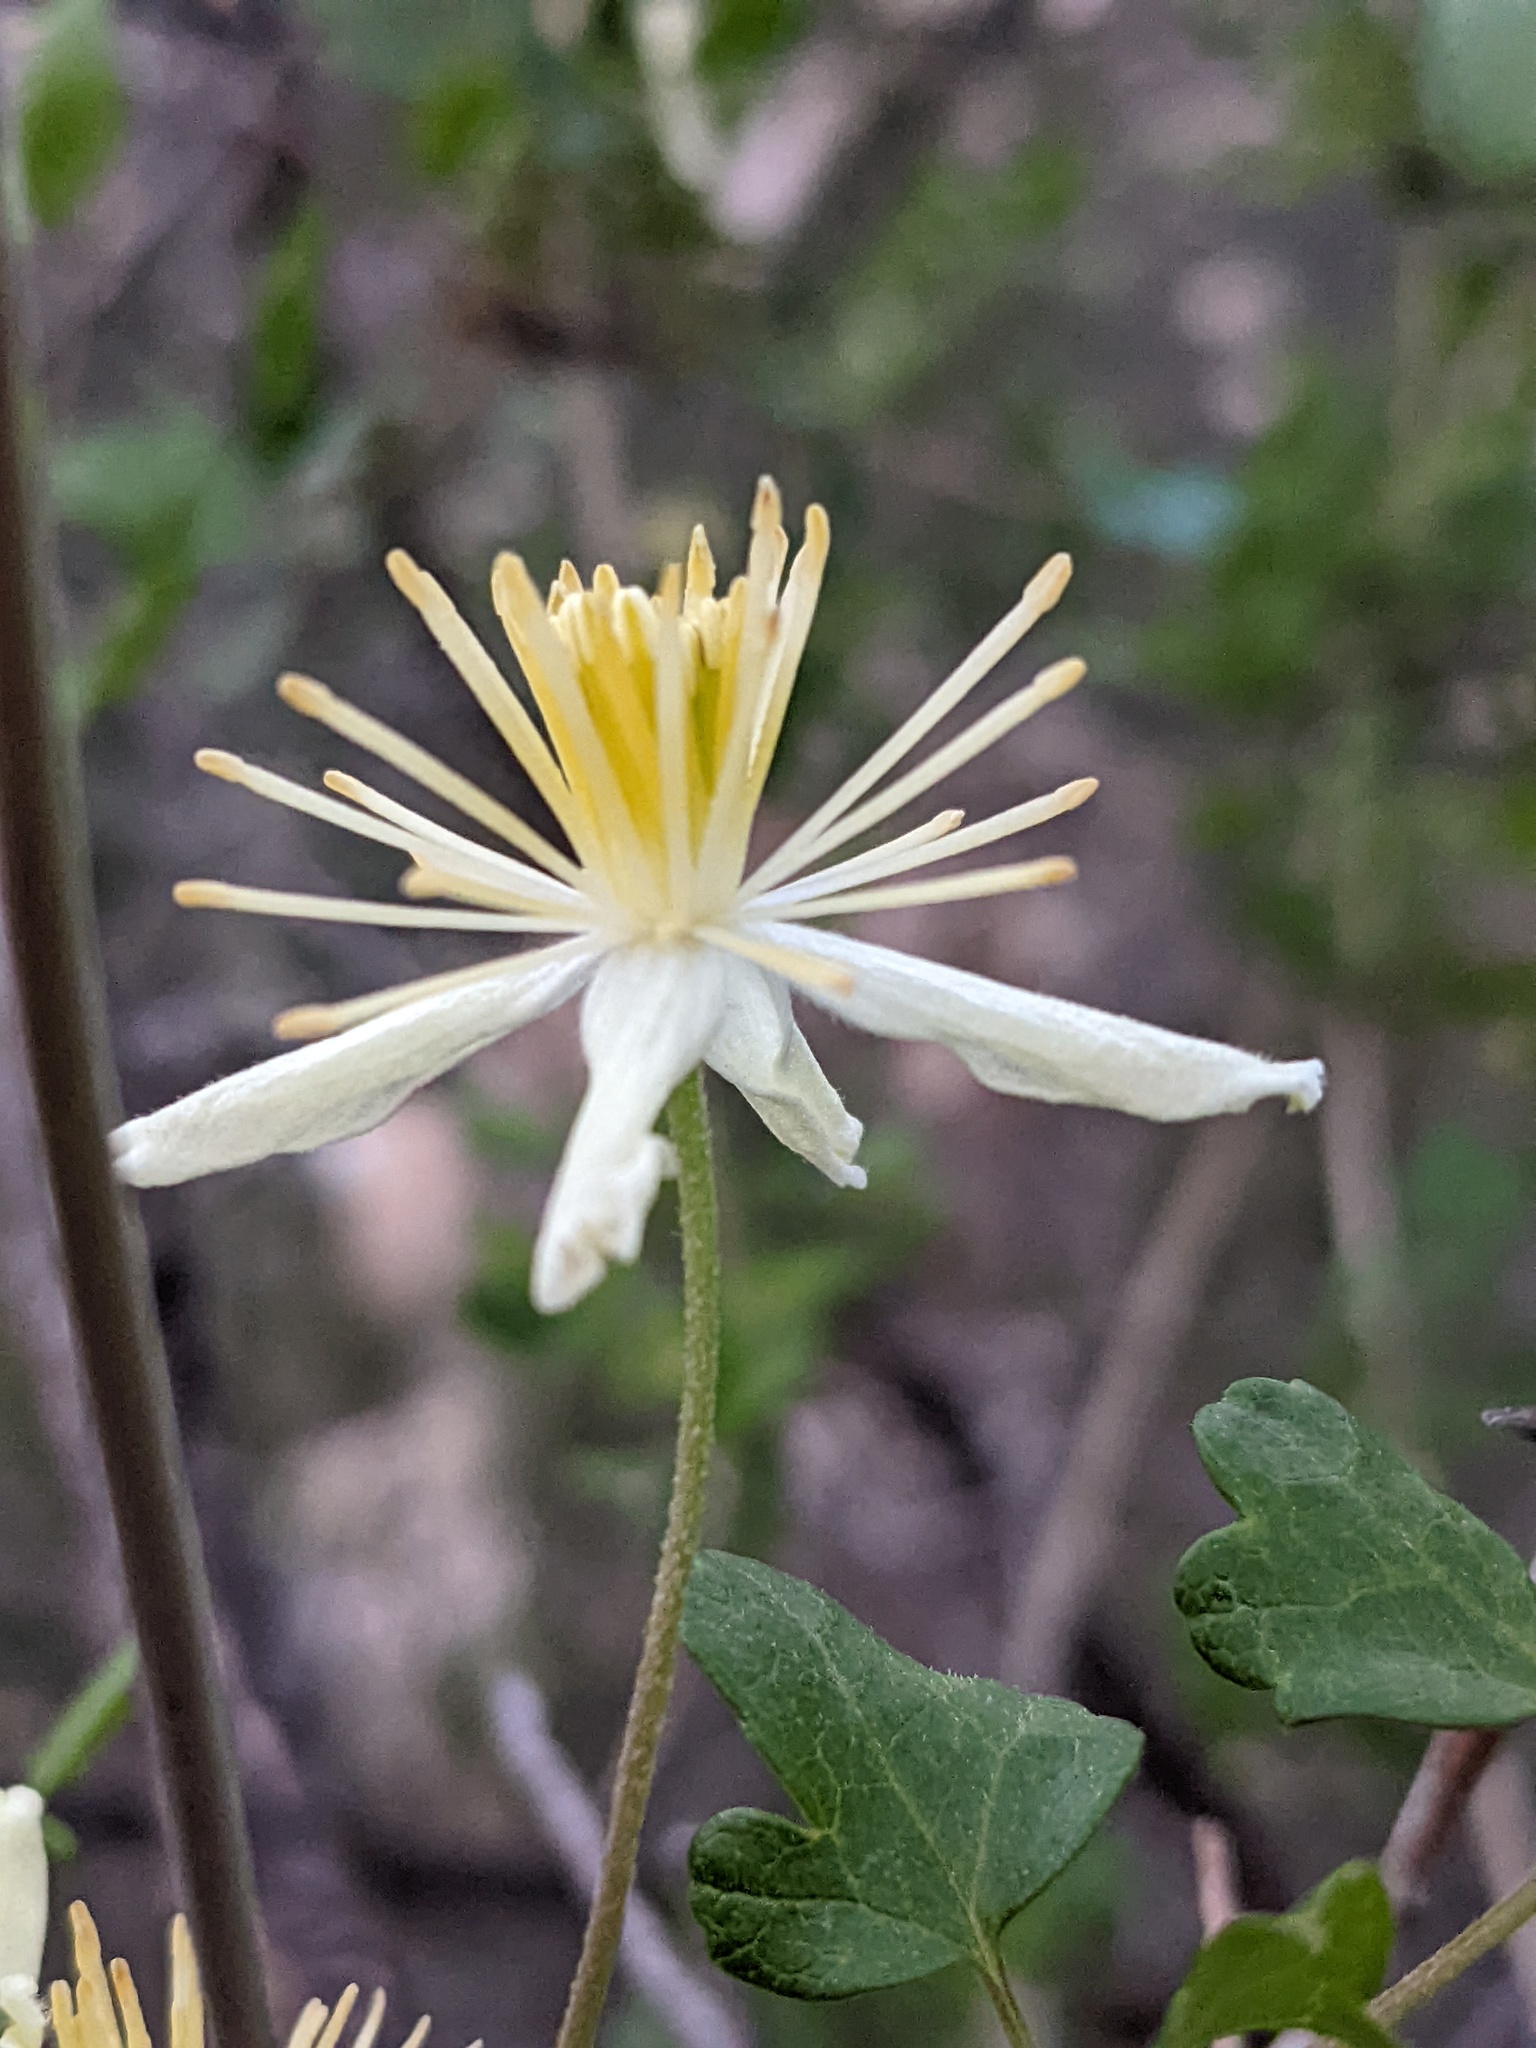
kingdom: Plantae
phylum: Tracheophyta
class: Magnoliopsida
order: Ranunculales
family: Ranunculaceae
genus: Clematis
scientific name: Clematis pauciflora
